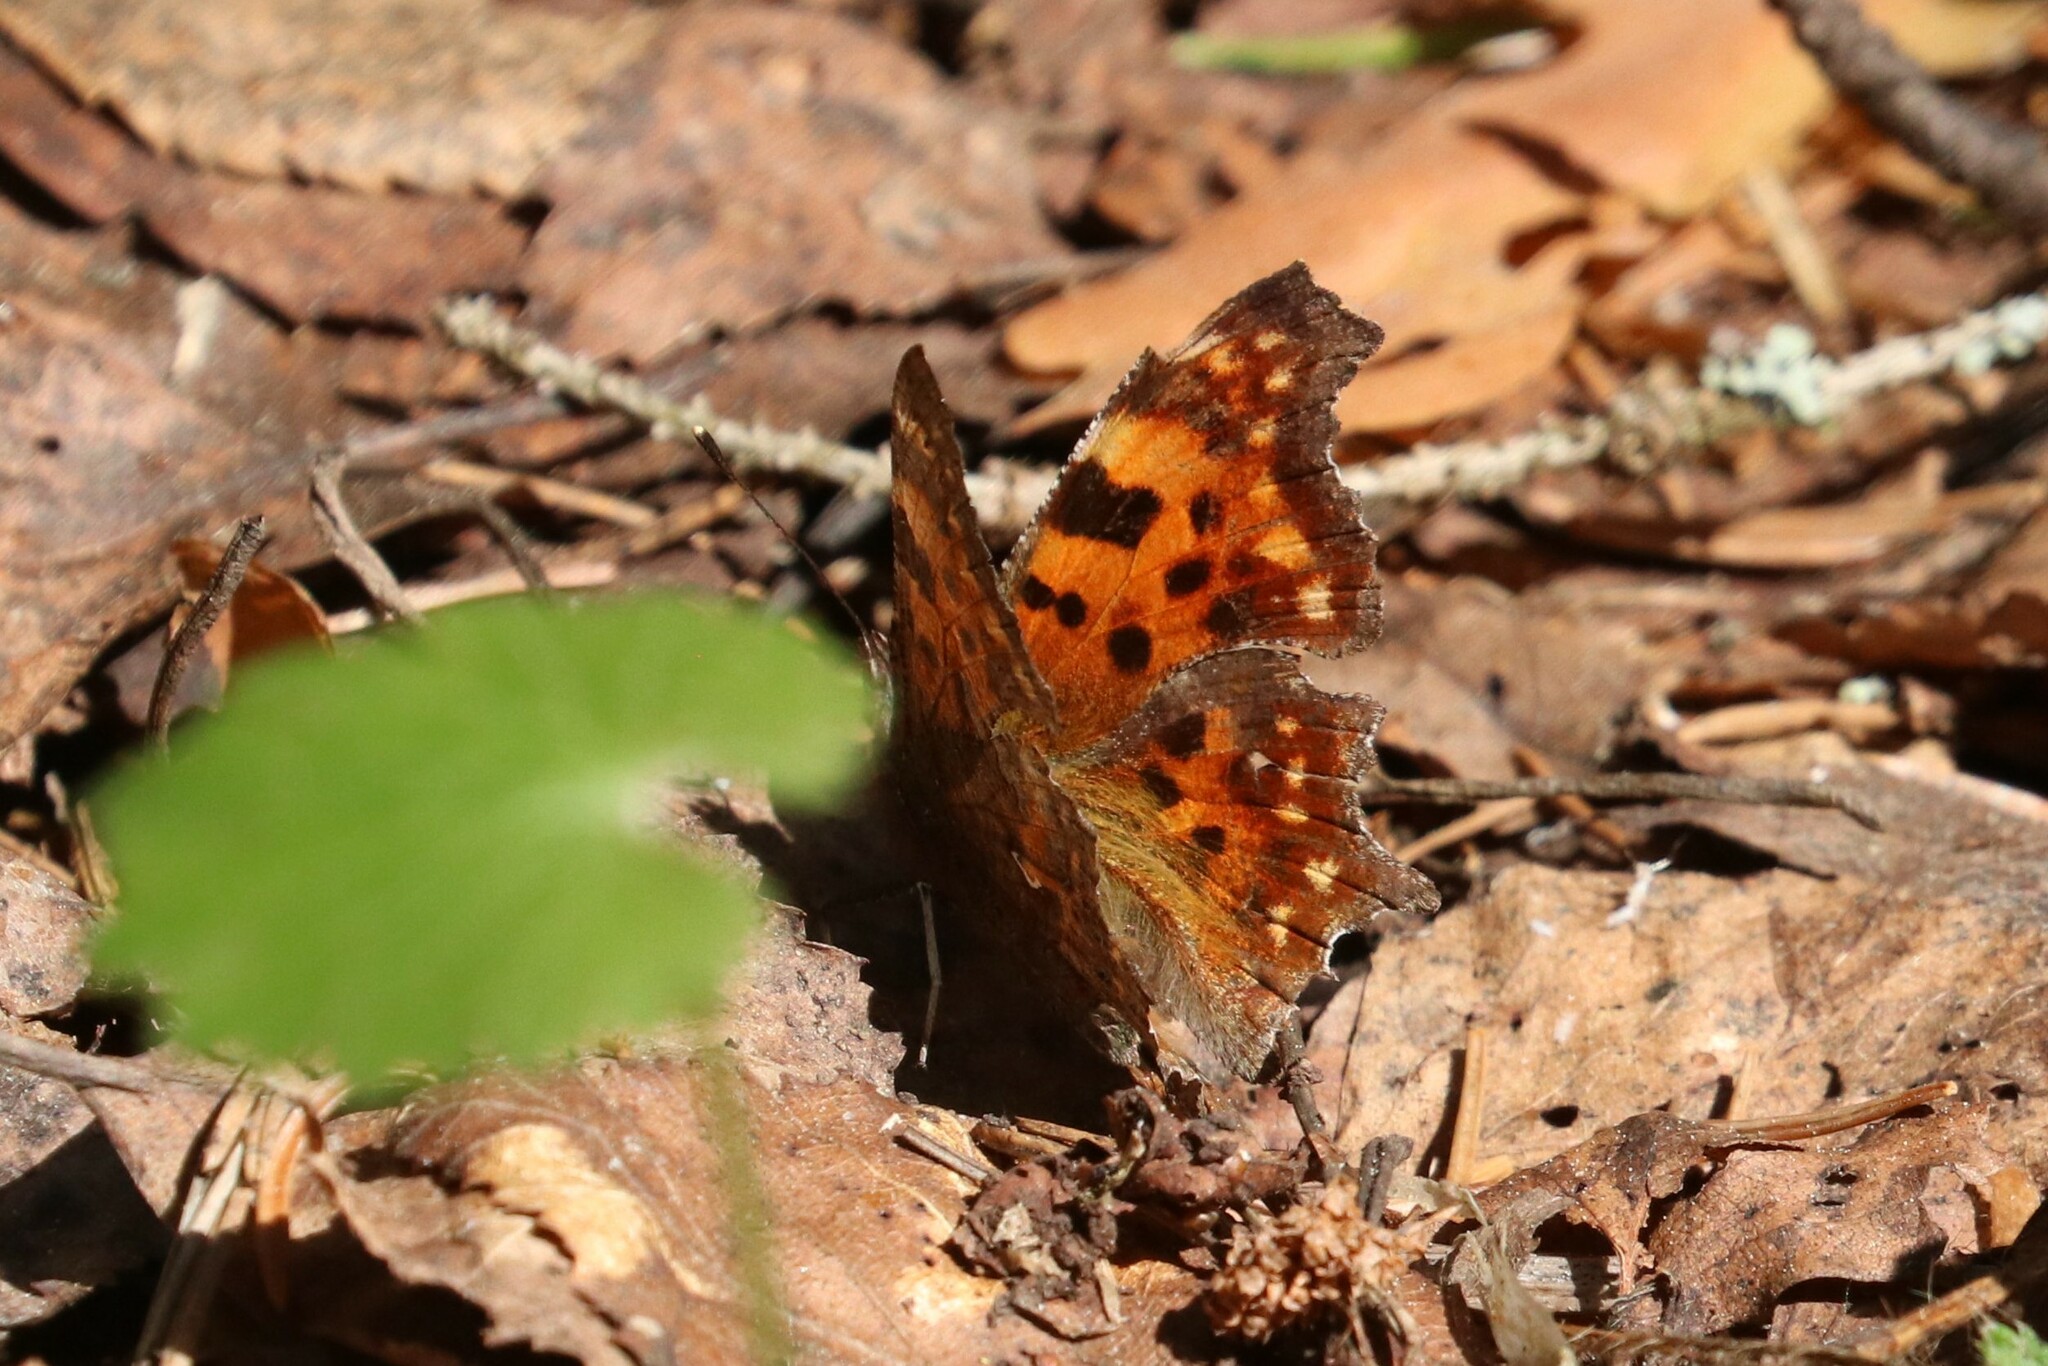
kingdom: Animalia
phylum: Arthropoda
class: Insecta
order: Lepidoptera
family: Nymphalidae
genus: Polygonia
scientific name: Polygonia c-album
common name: Comma
